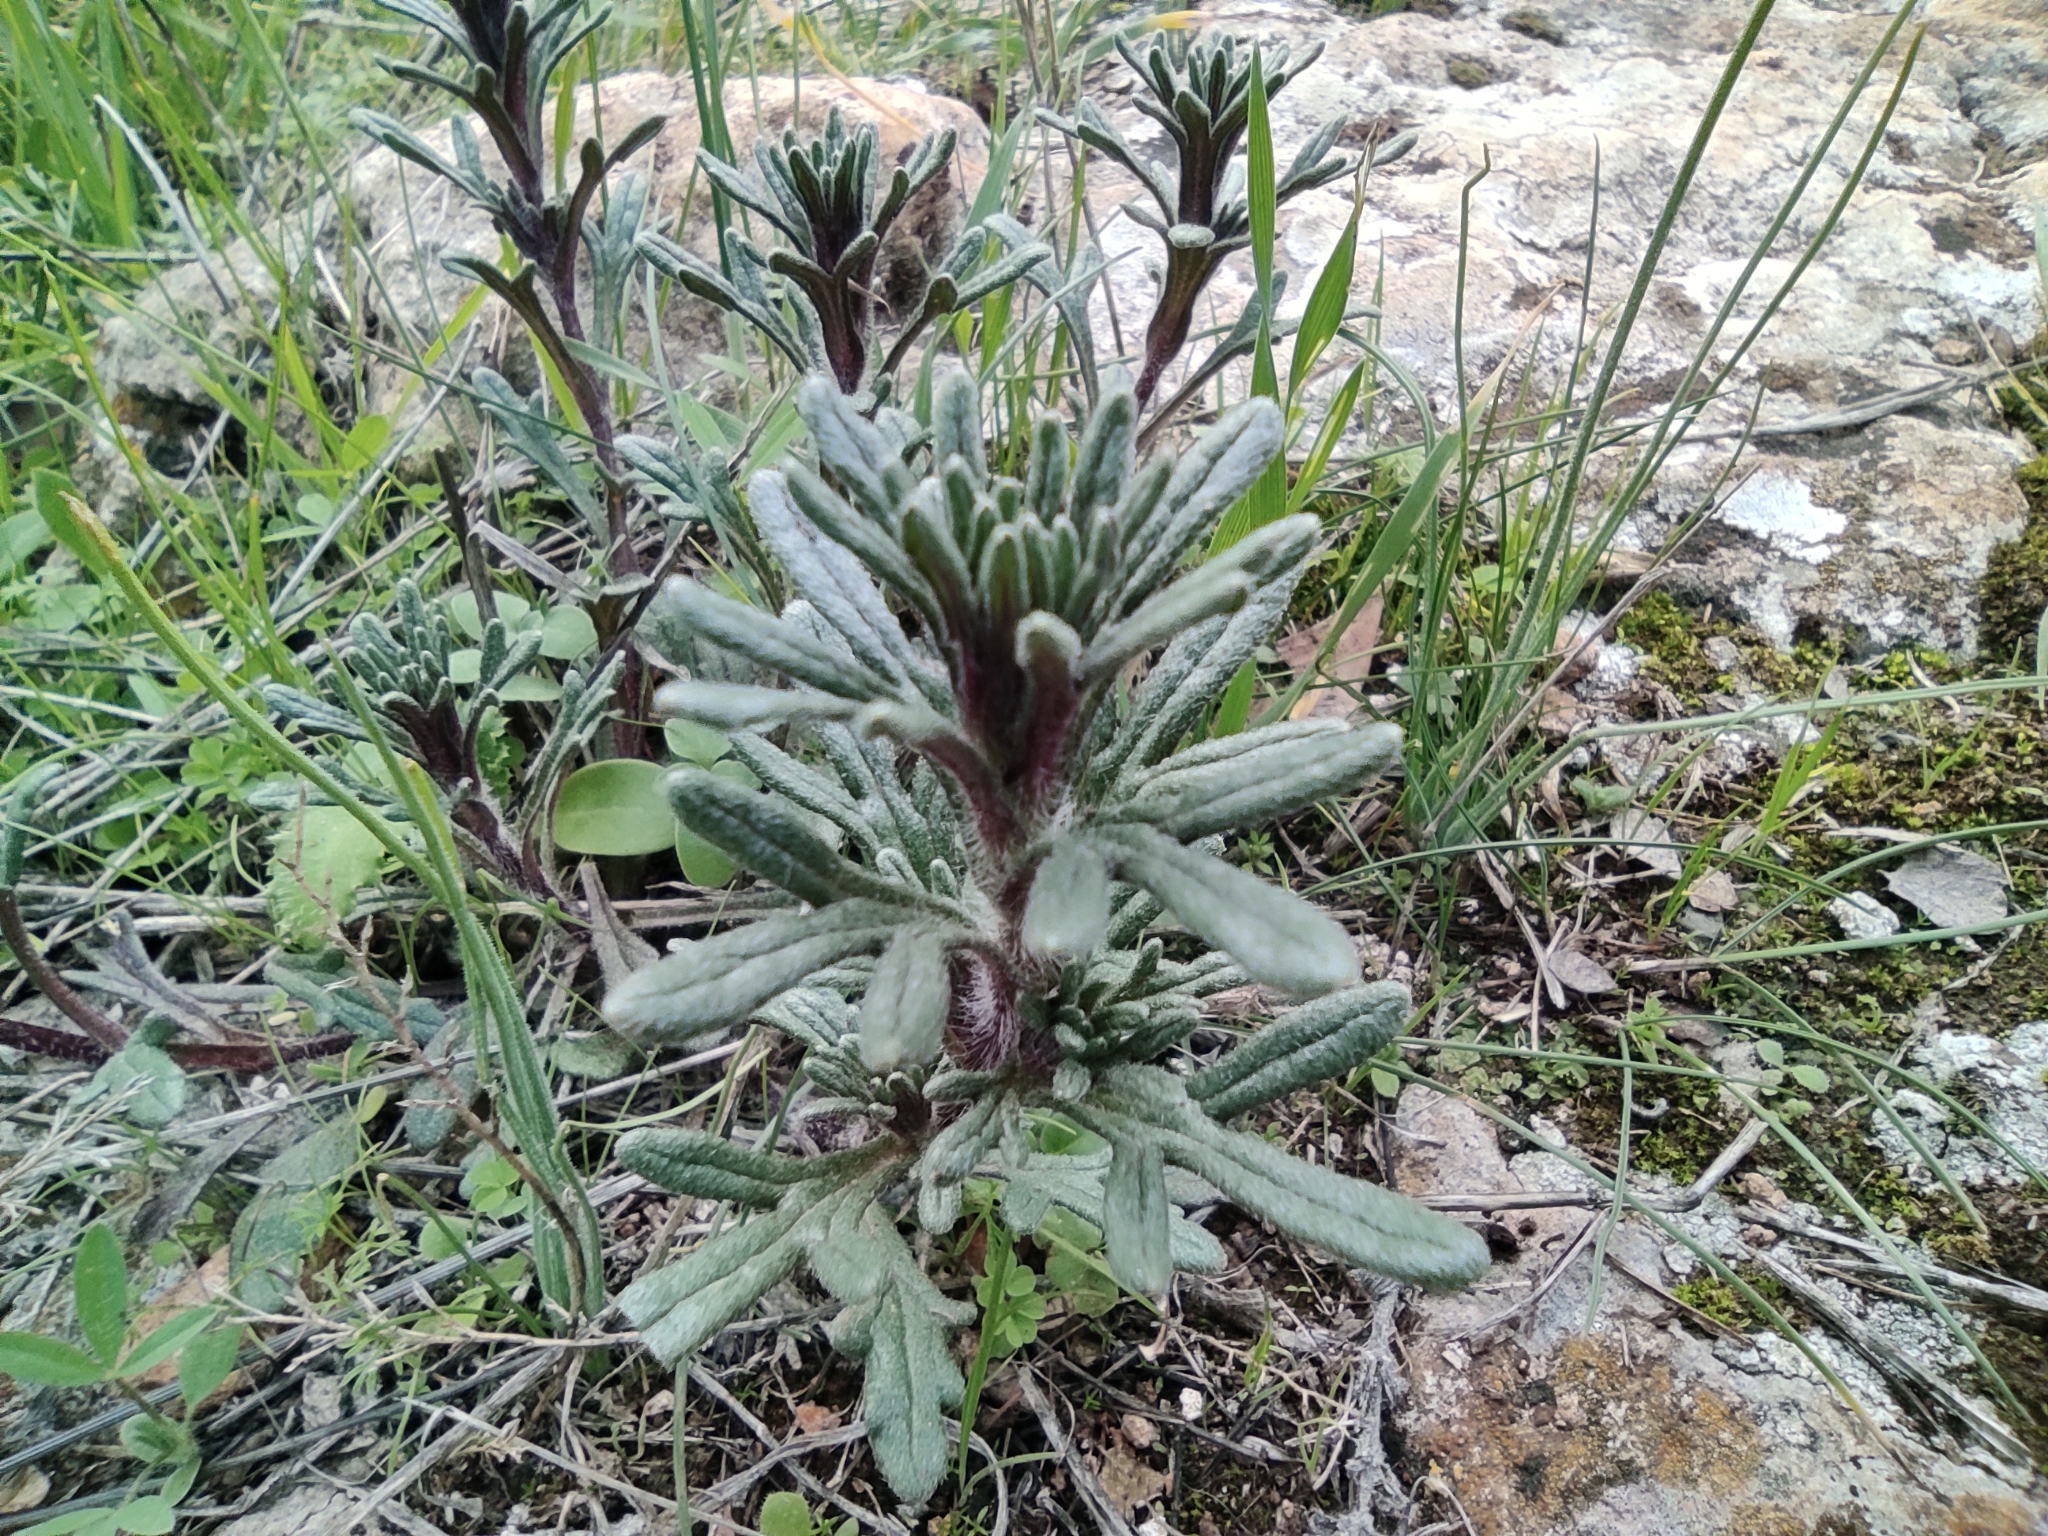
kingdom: Plantae
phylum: Tracheophyta
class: Magnoliopsida
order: Lamiales
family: Lamiaceae
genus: Ajuga
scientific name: Ajuga chamaepitys
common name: Ground-pine
